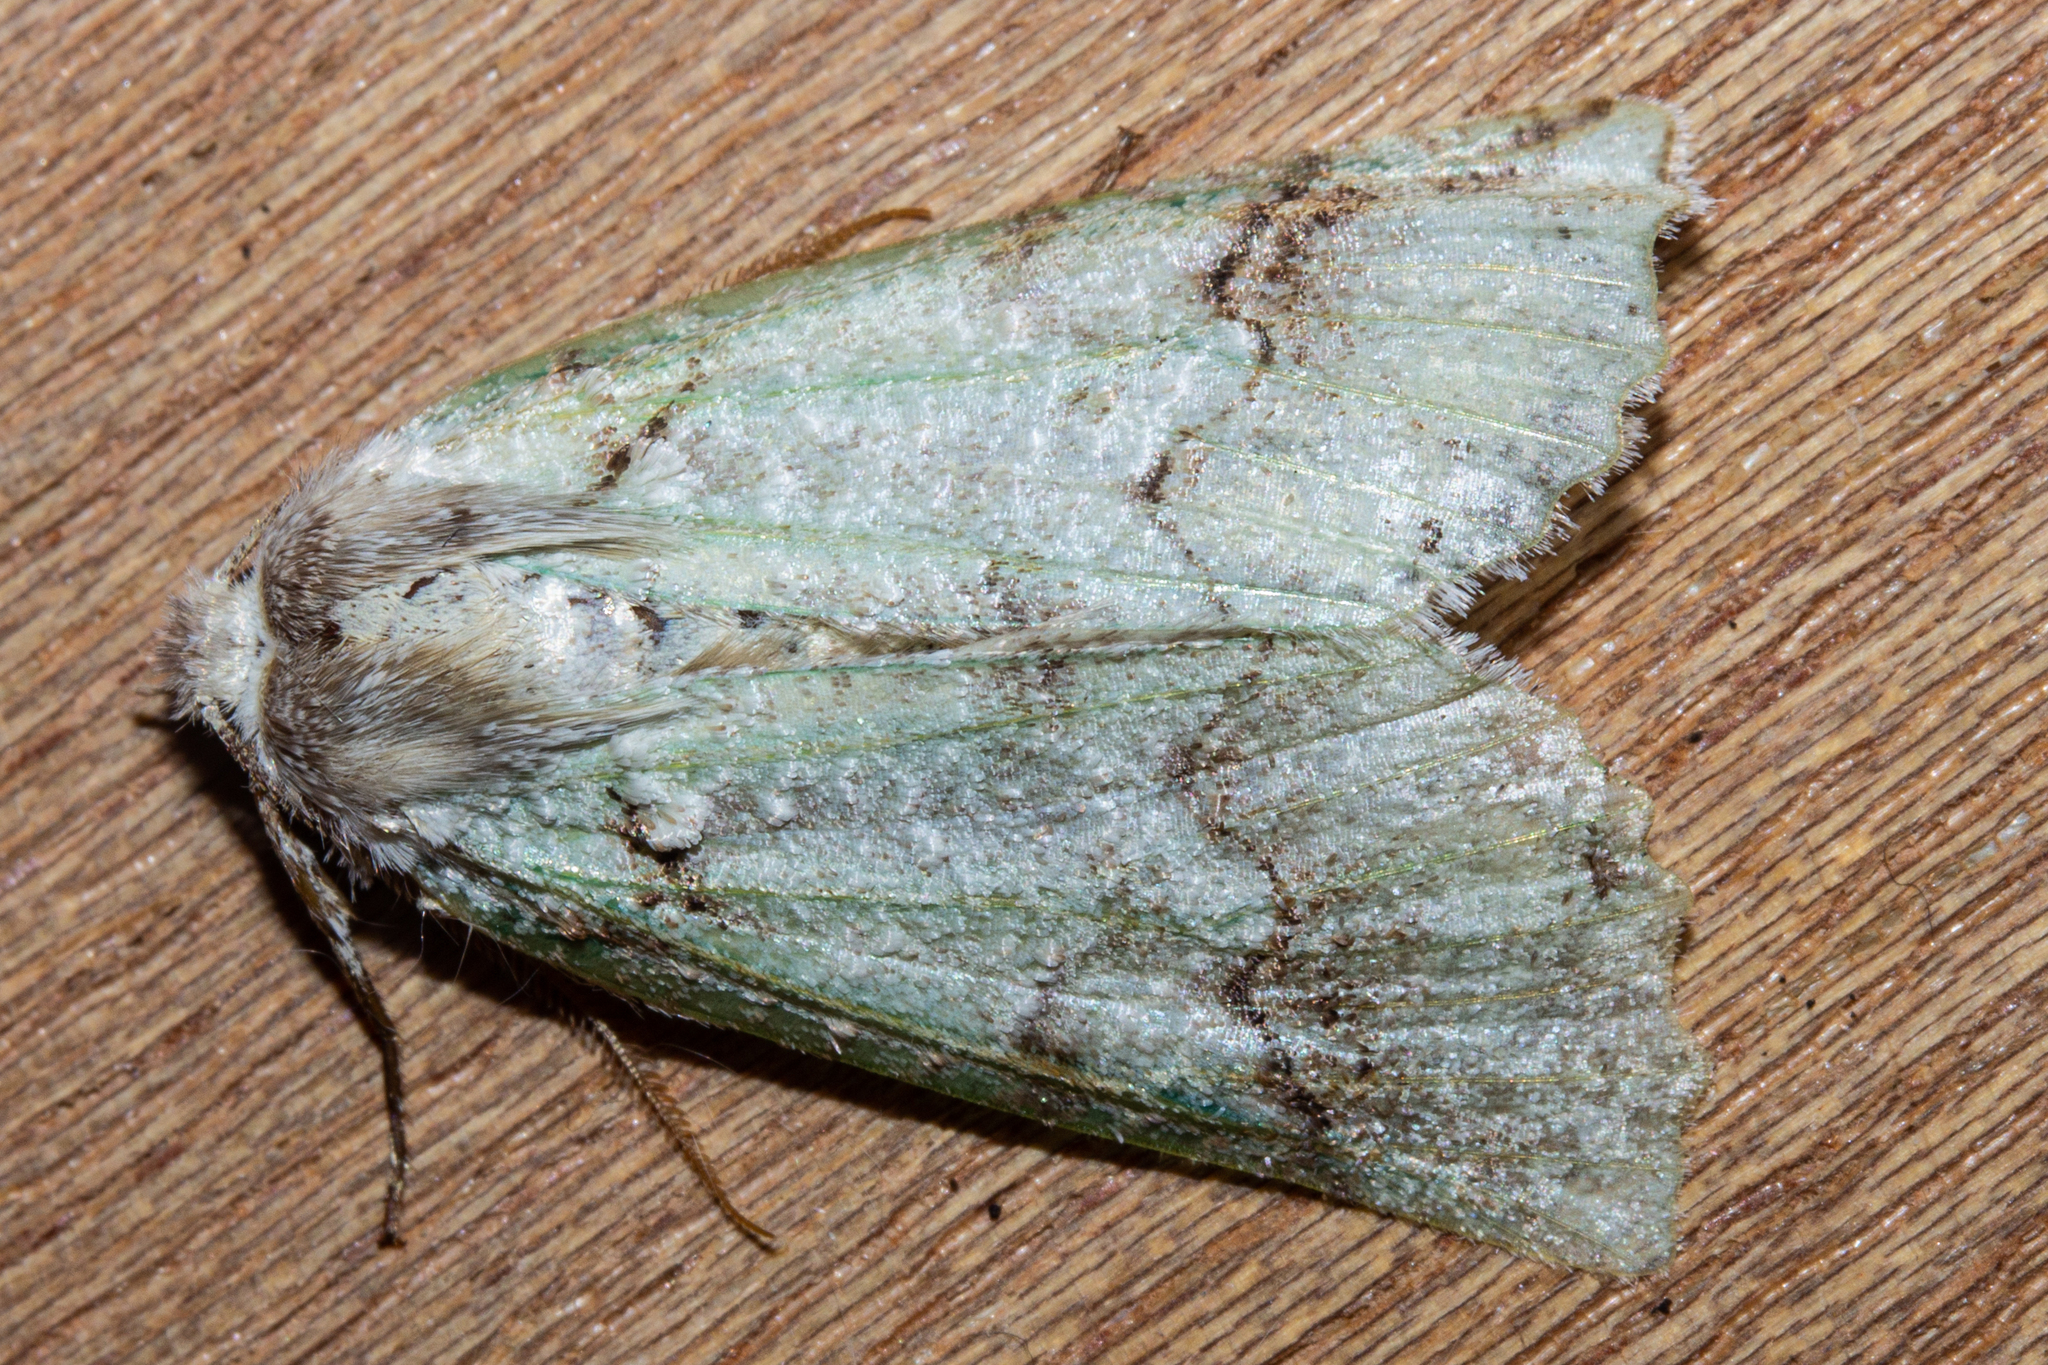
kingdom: Animalia
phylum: Arthropoda
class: Insecta
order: Lepidoptera
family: Geometridae
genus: Declana
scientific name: Declana floccosa
